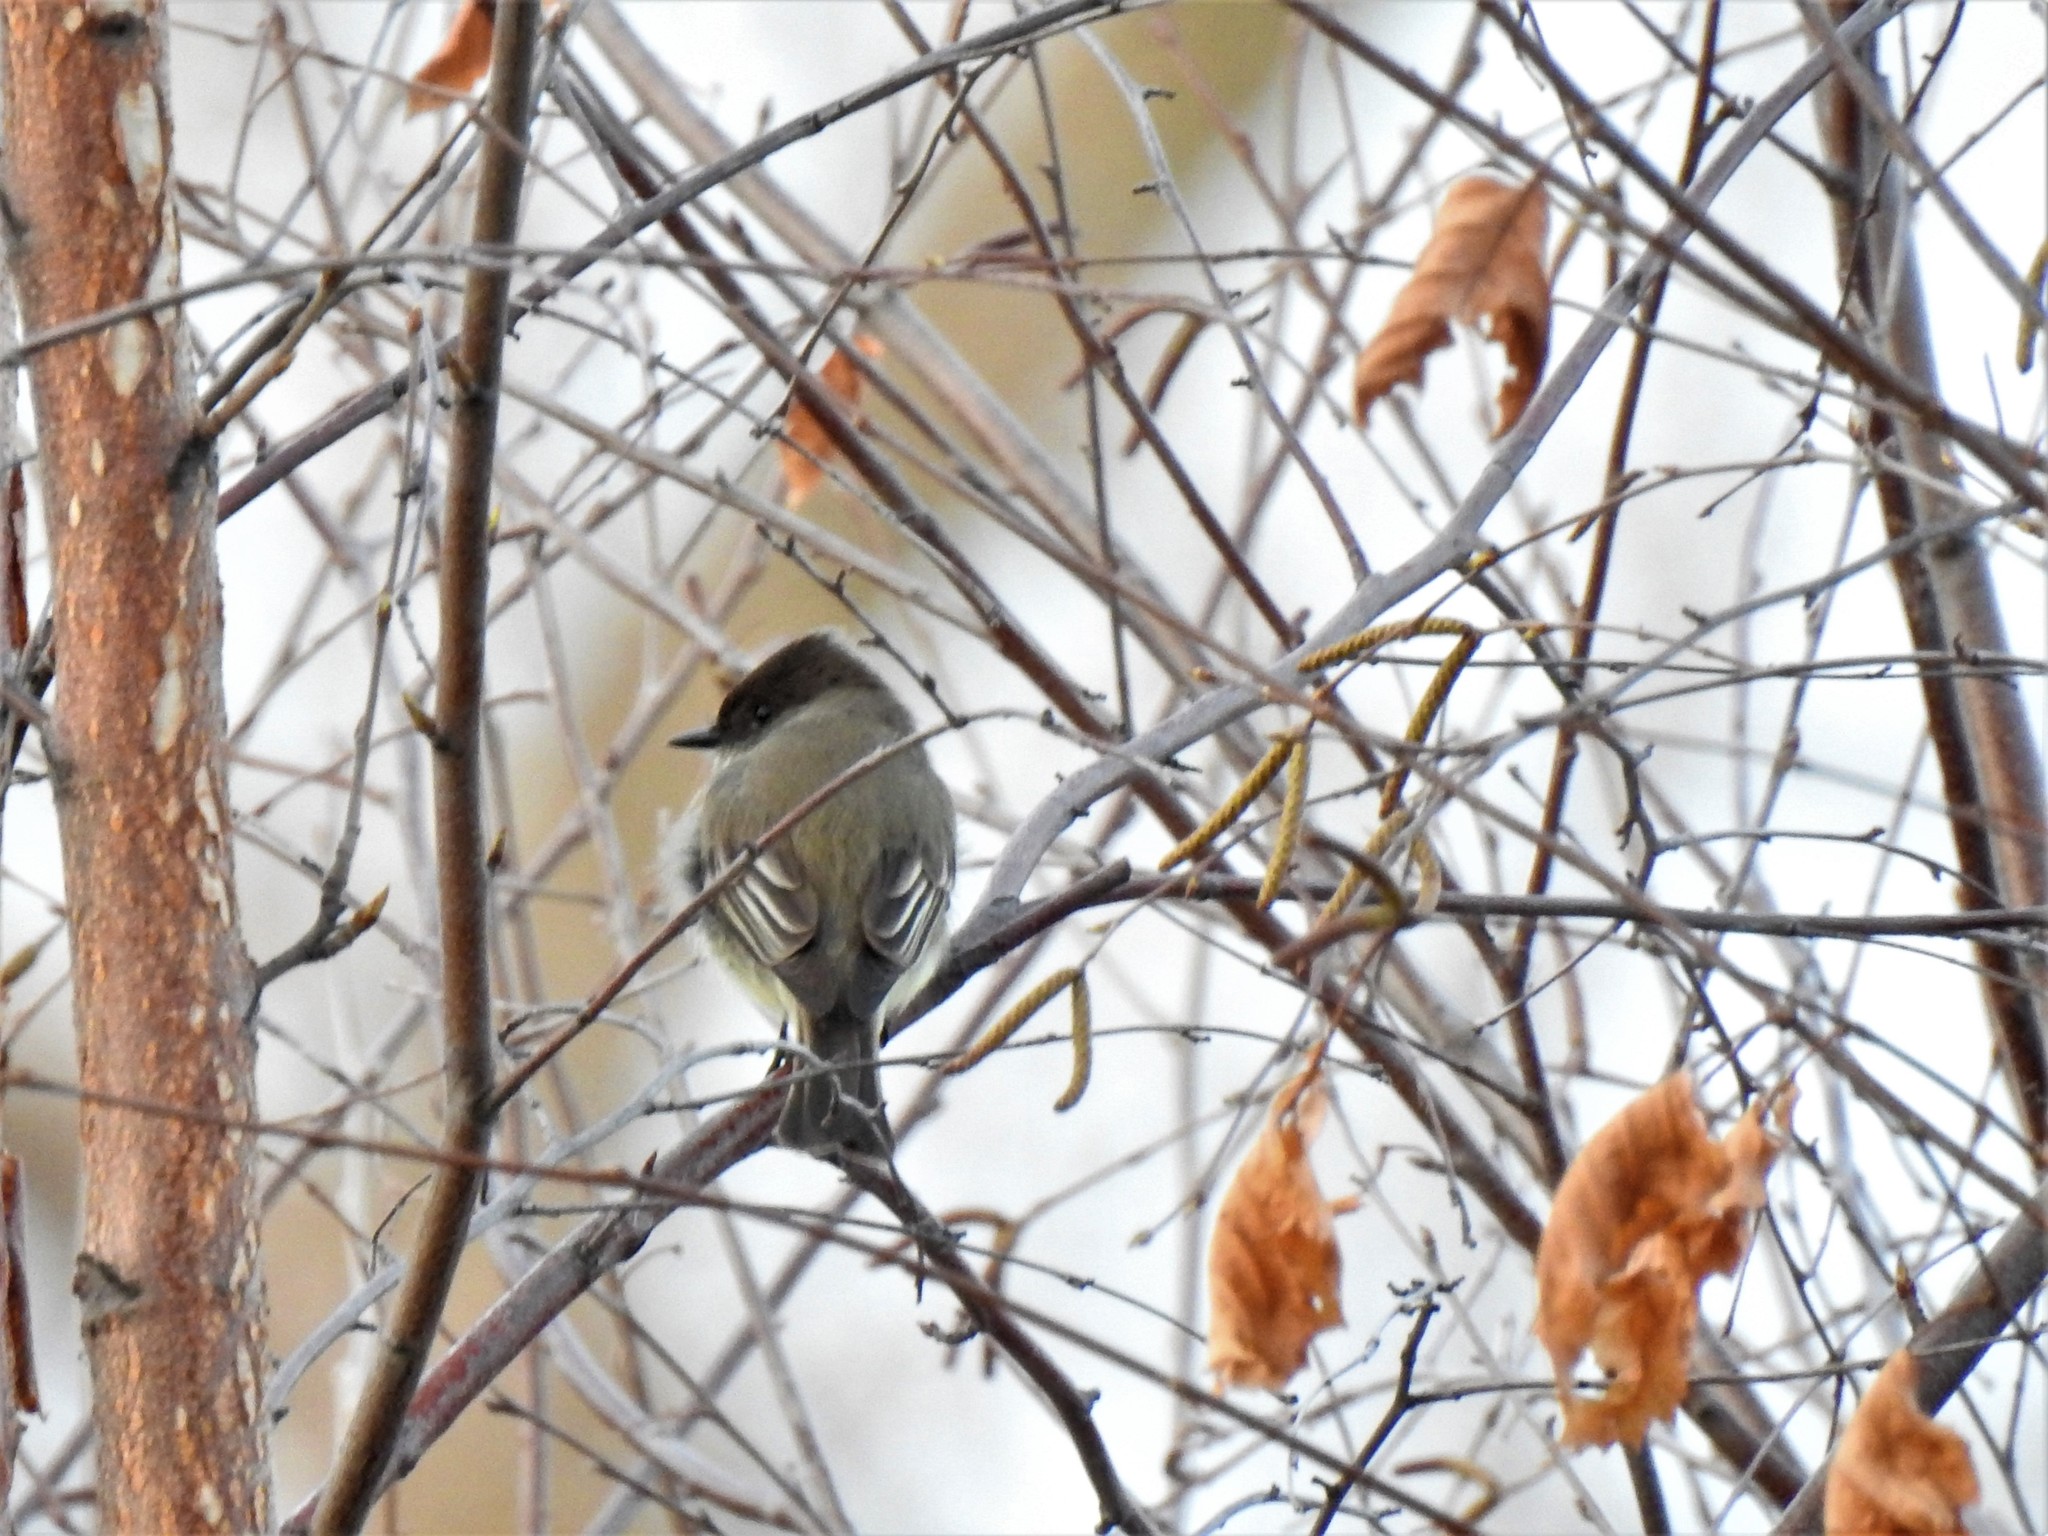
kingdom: Animalia
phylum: Chordata
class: Aves
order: Passeriformes
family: Tyrannidae
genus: Sayornis
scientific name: Sayornis phoebe
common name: Eastern phoebe
